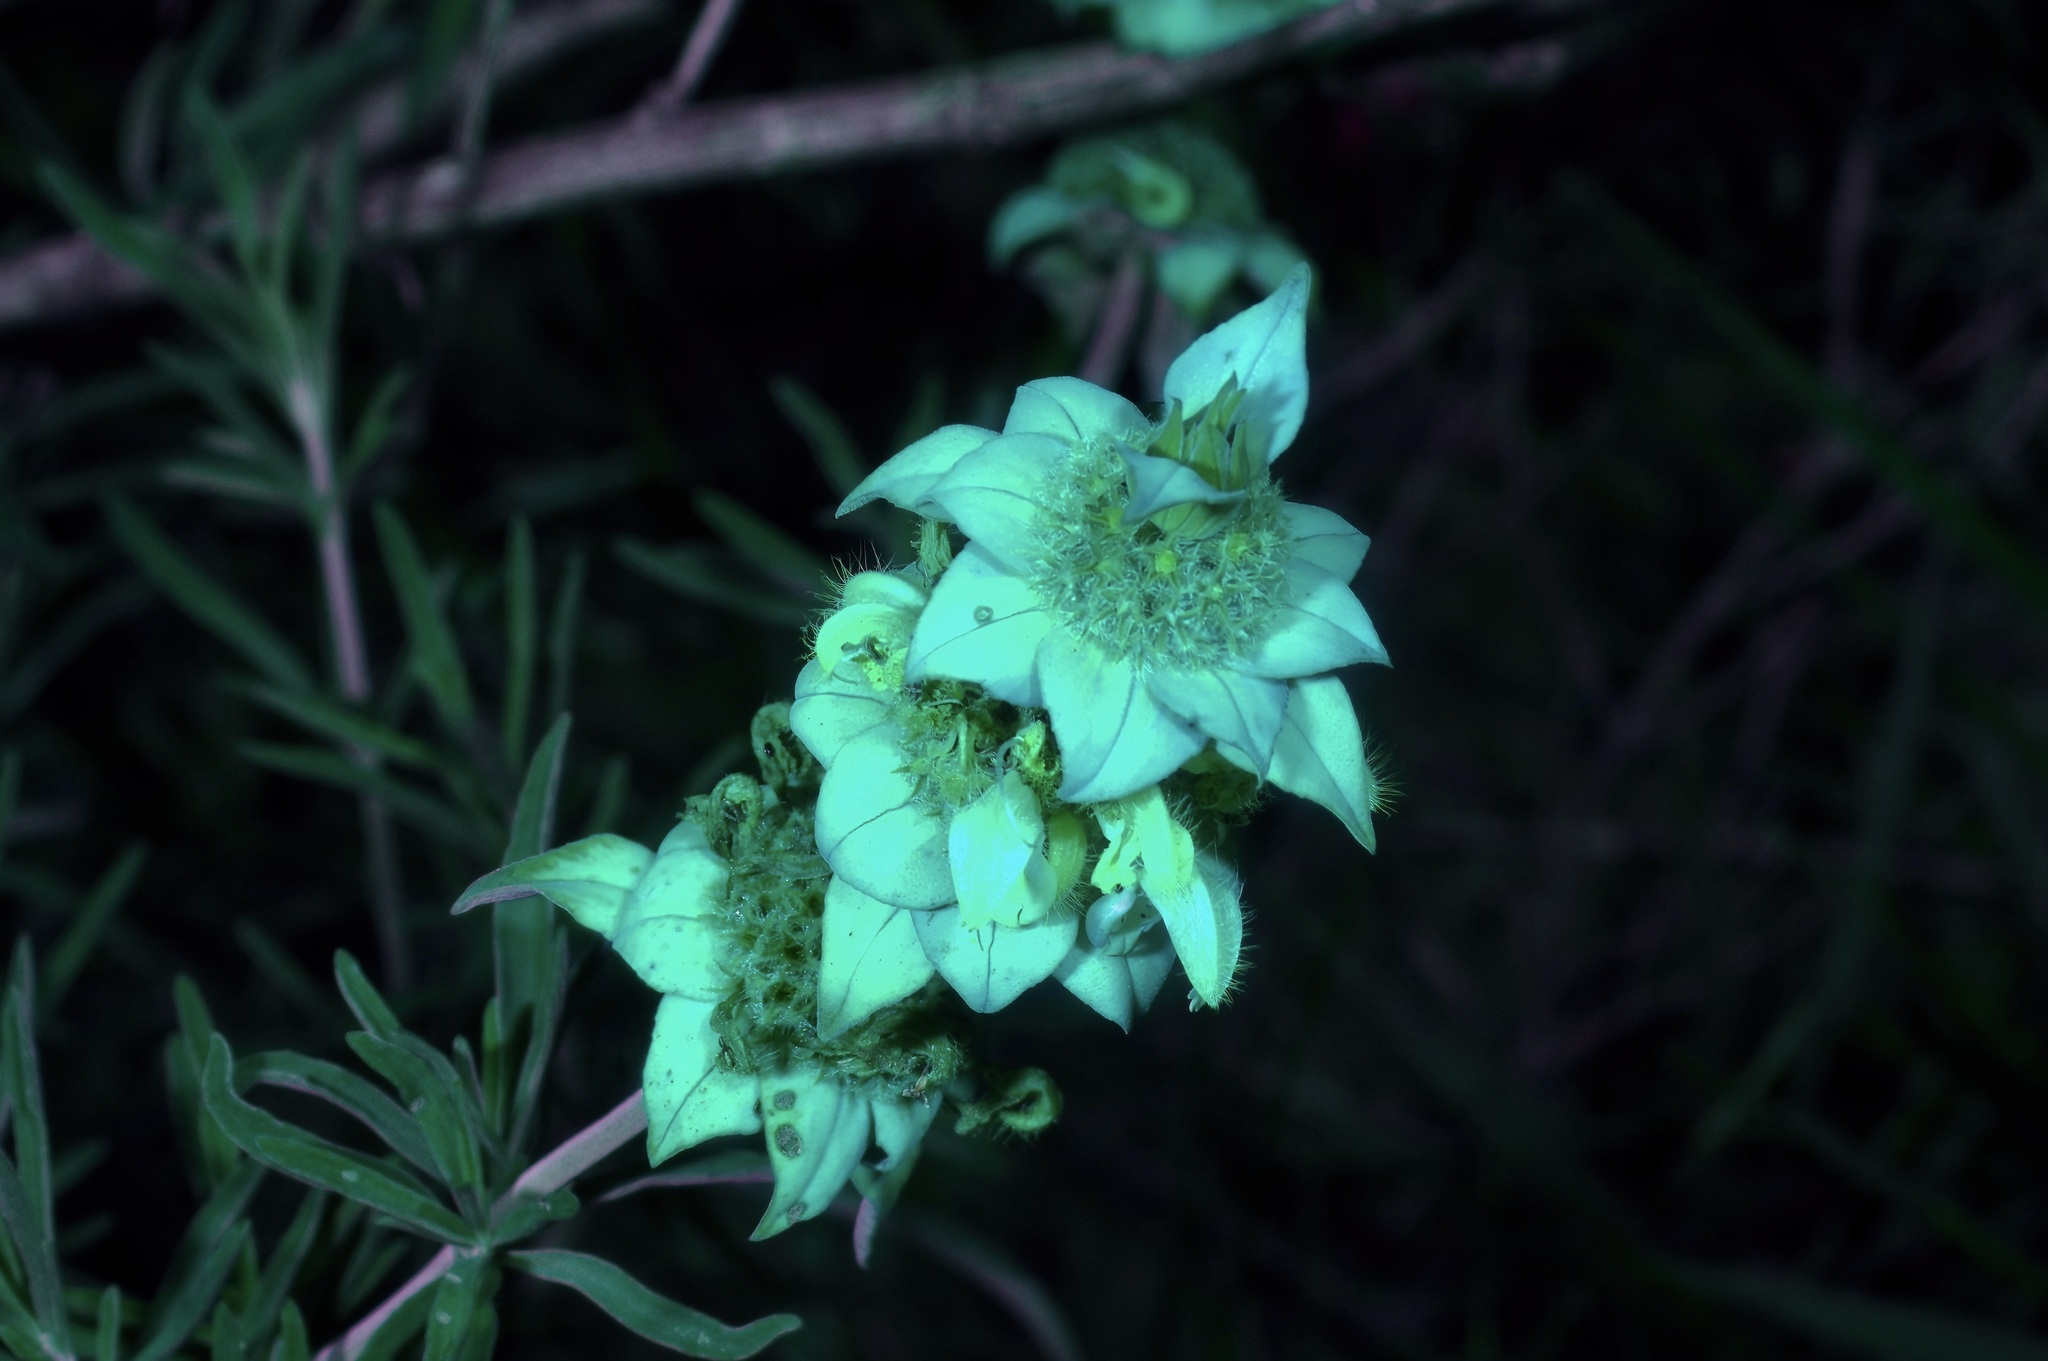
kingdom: Plantae
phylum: Tracheophyta
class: Magnoliopsida
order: Lamiales
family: Lamiaceae
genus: Monarda
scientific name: Monarda fruticulosa
